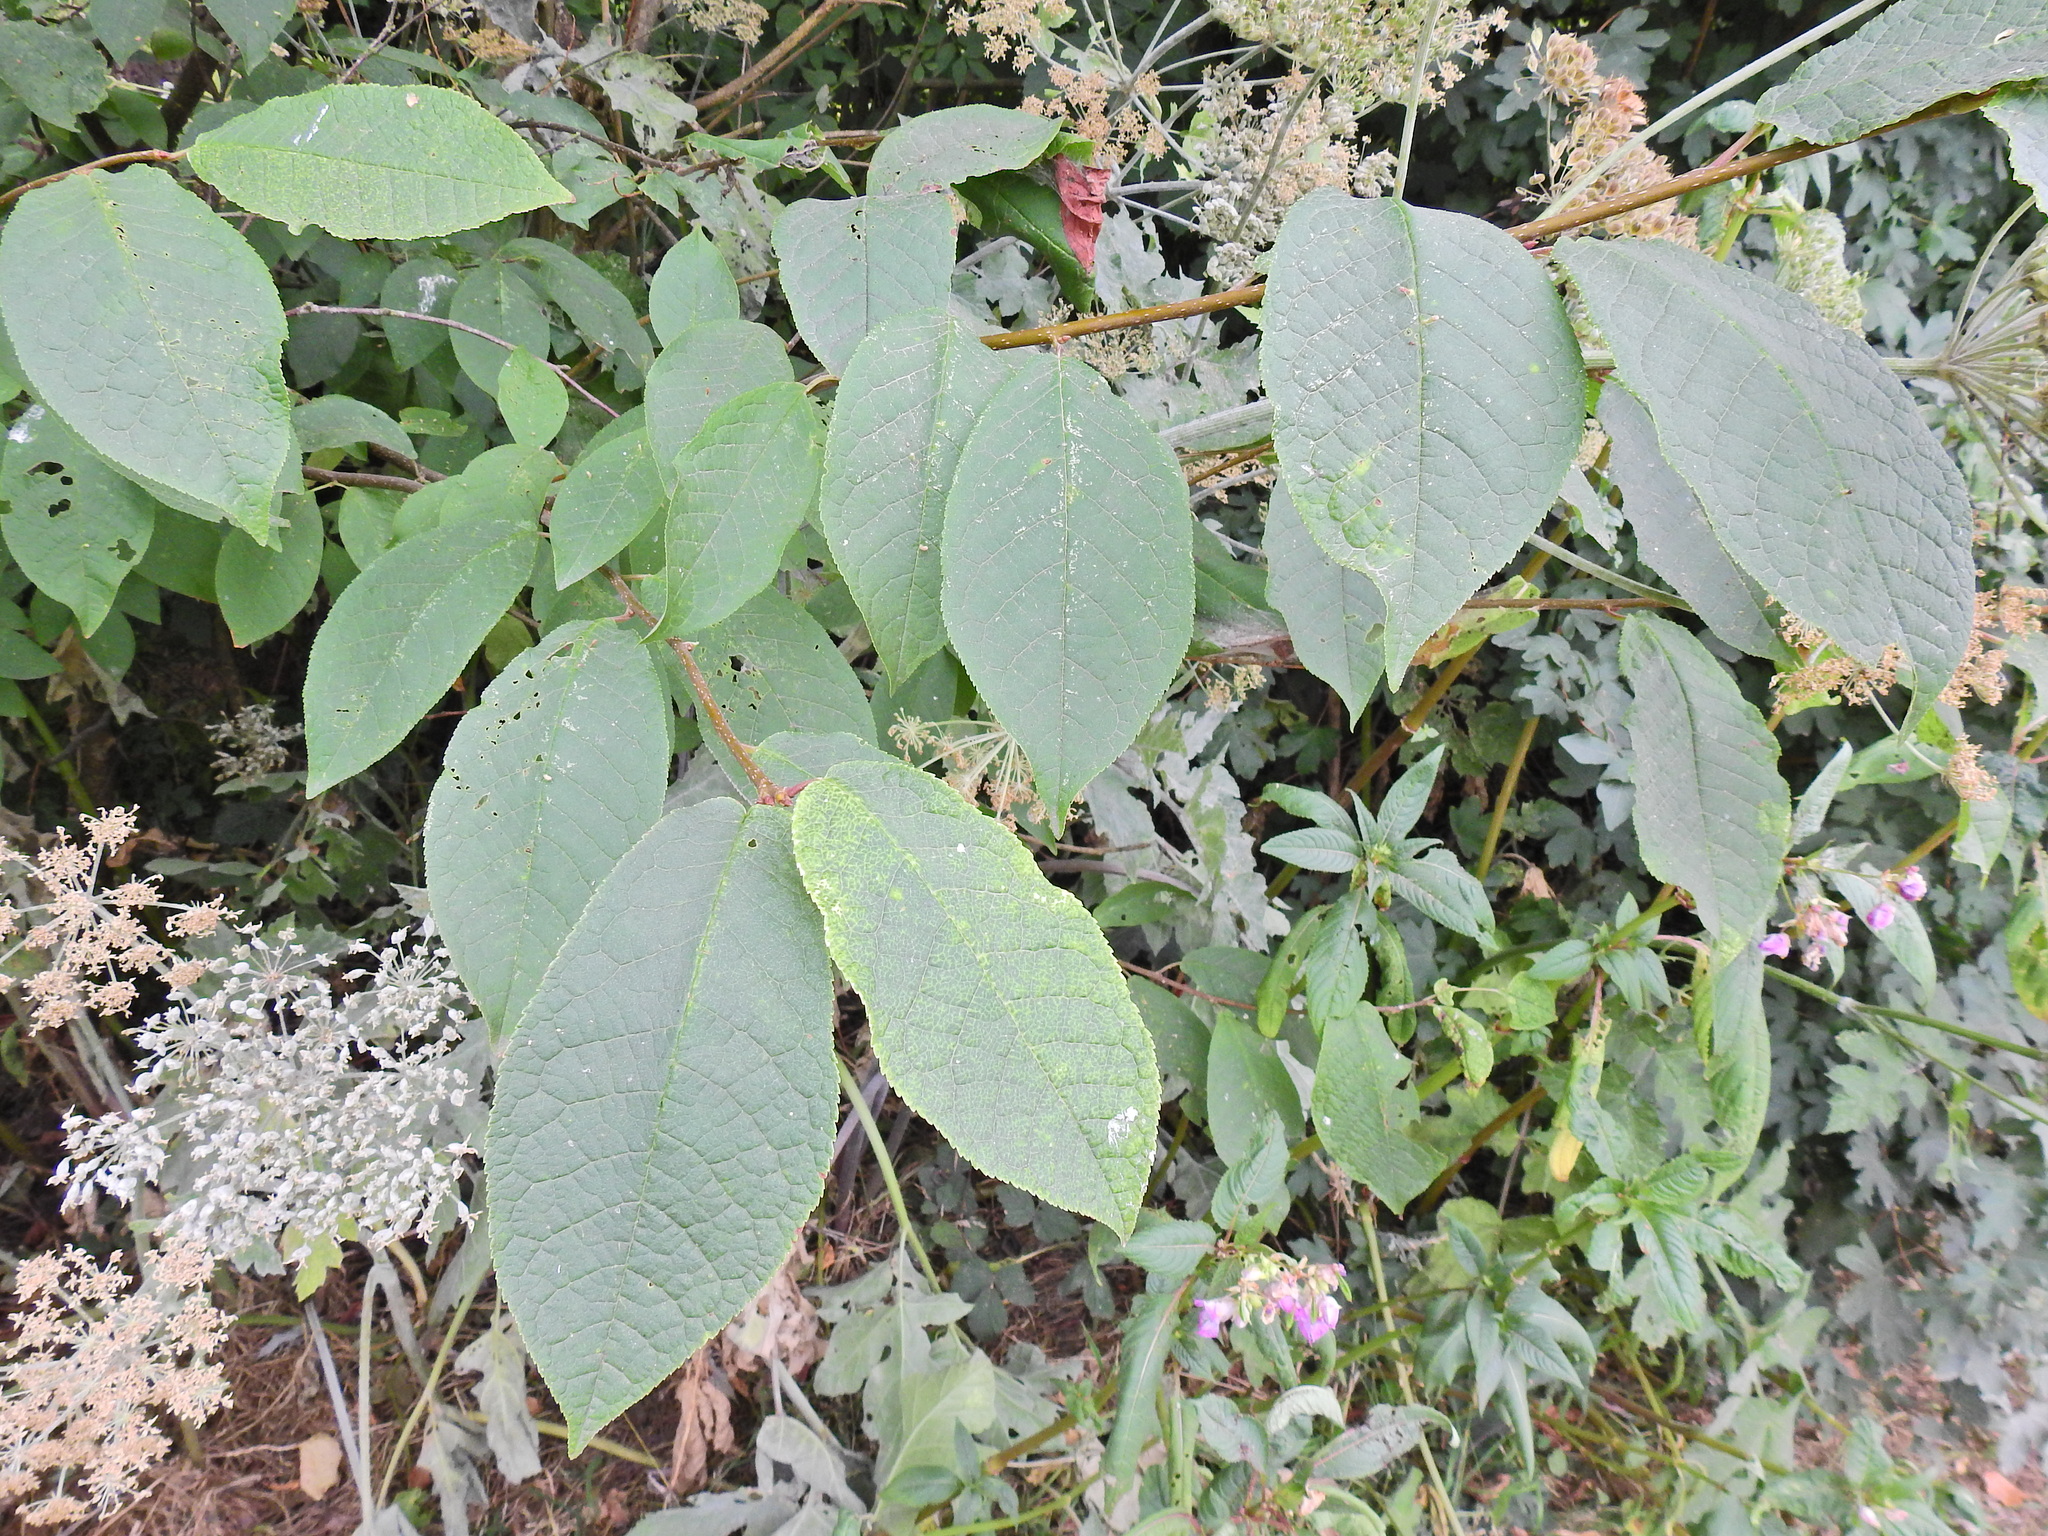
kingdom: Plantae
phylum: Tracheophyta
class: Magnoliopsida
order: Rosales
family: Rosaceae
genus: Prunus
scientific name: Prunus padus
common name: Bird cherry
